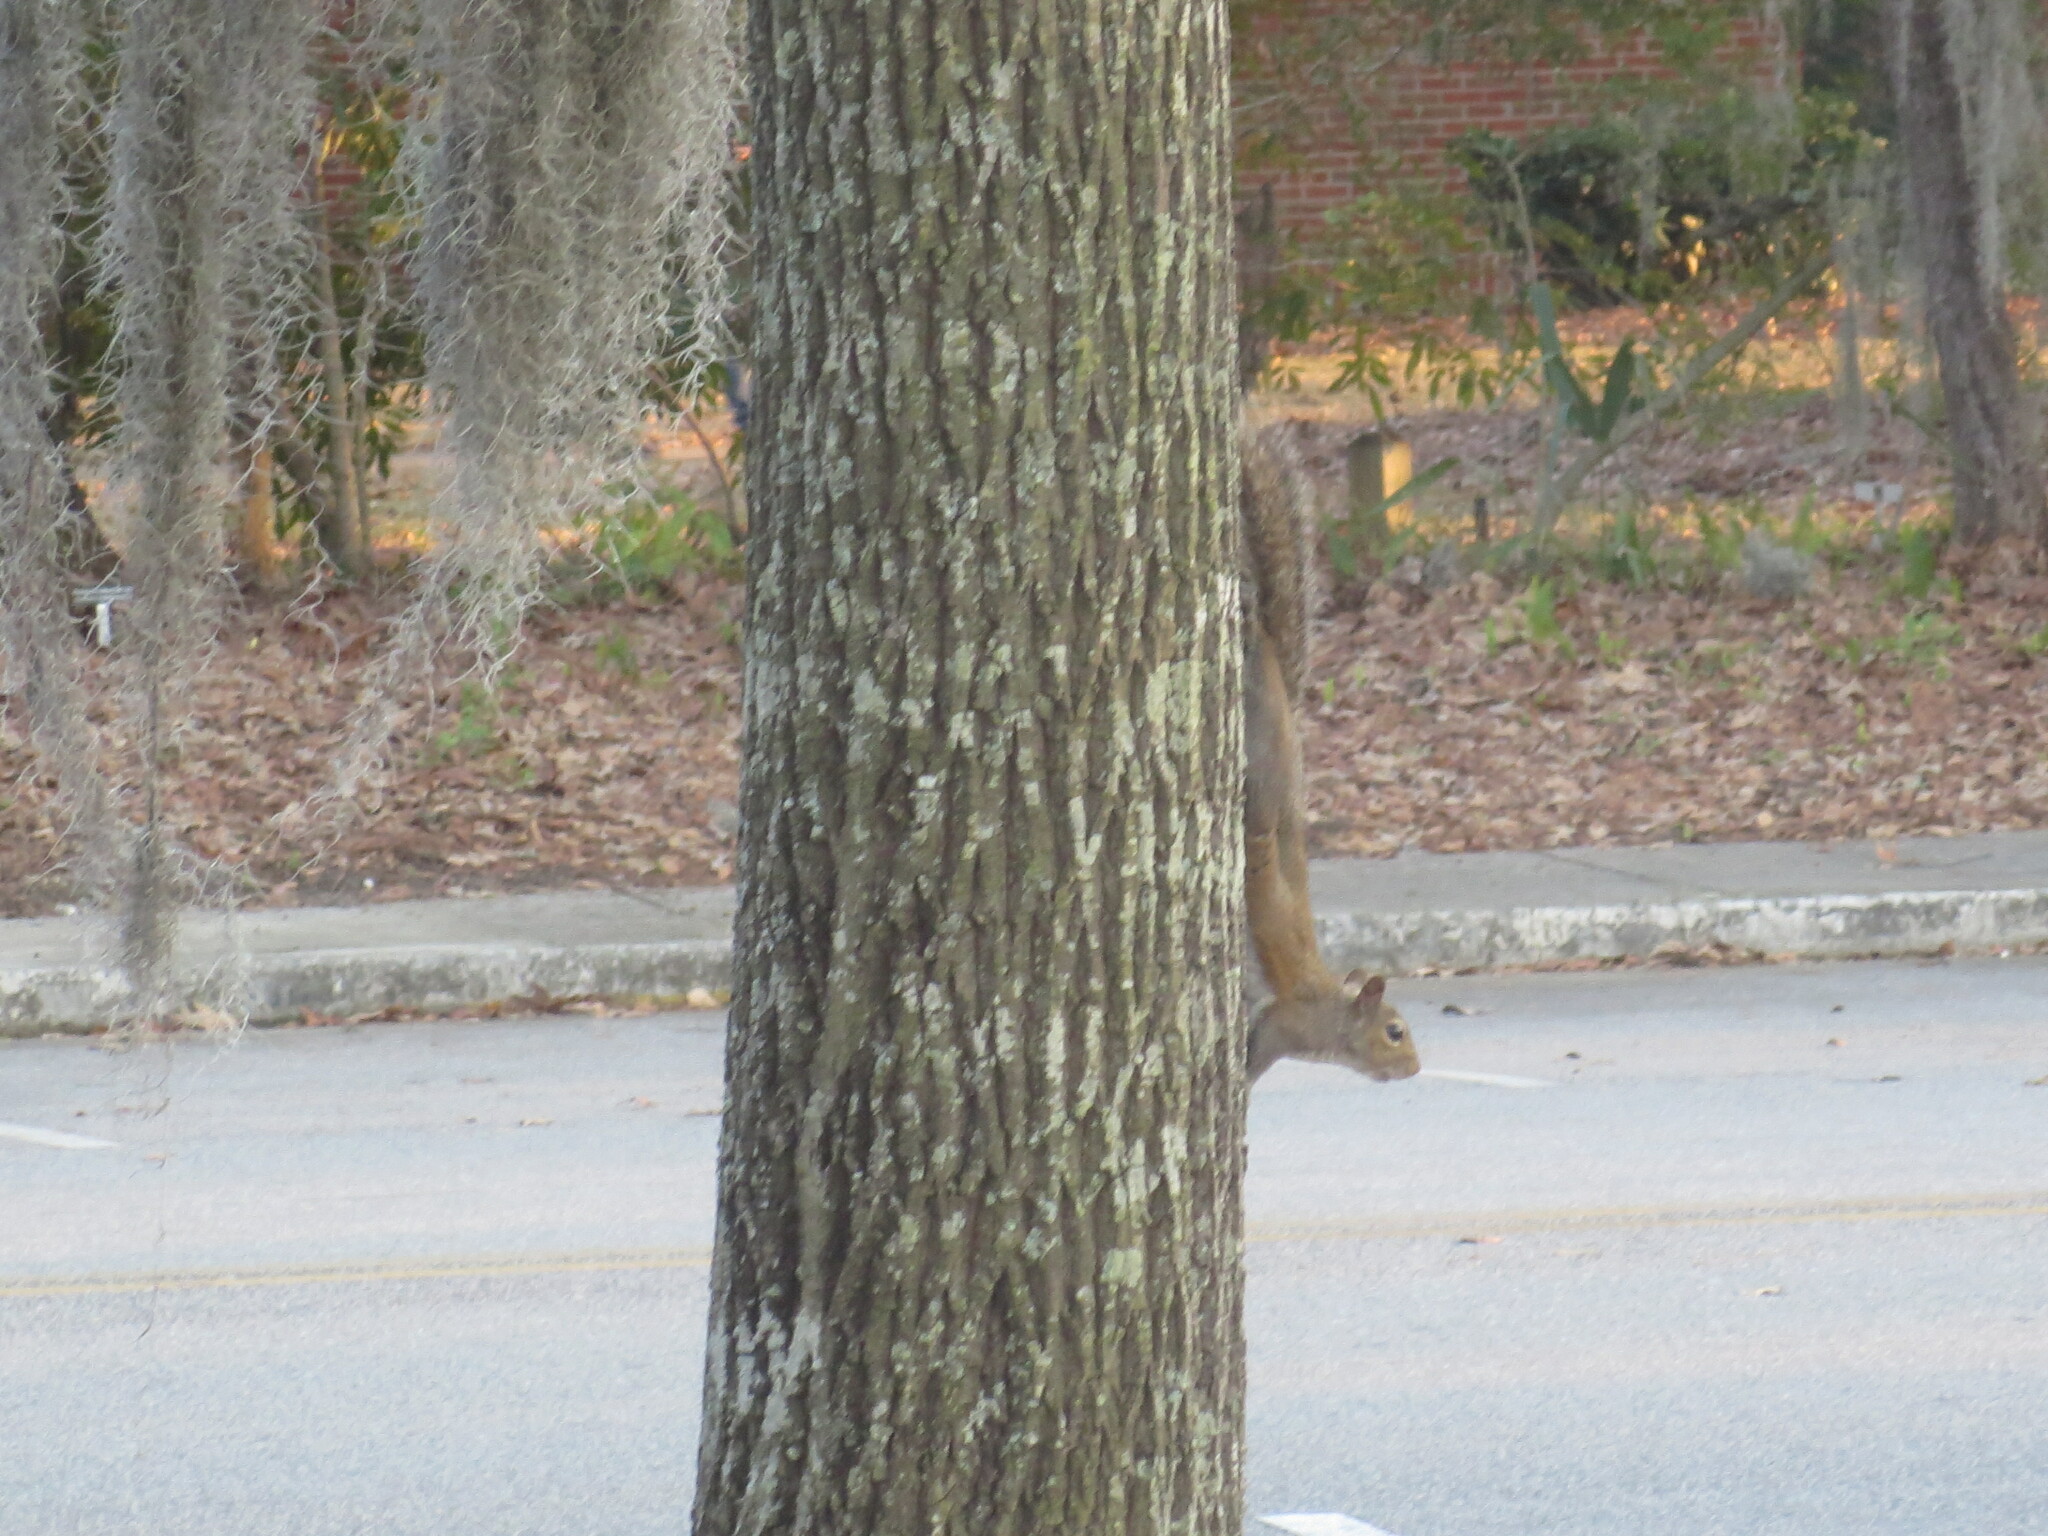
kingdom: Animalia
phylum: Chordata
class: Mammalia
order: Rodentia
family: Sciuridae
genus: Sciurus
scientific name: Sciurus carolinensis
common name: Eastern gray squirrel
